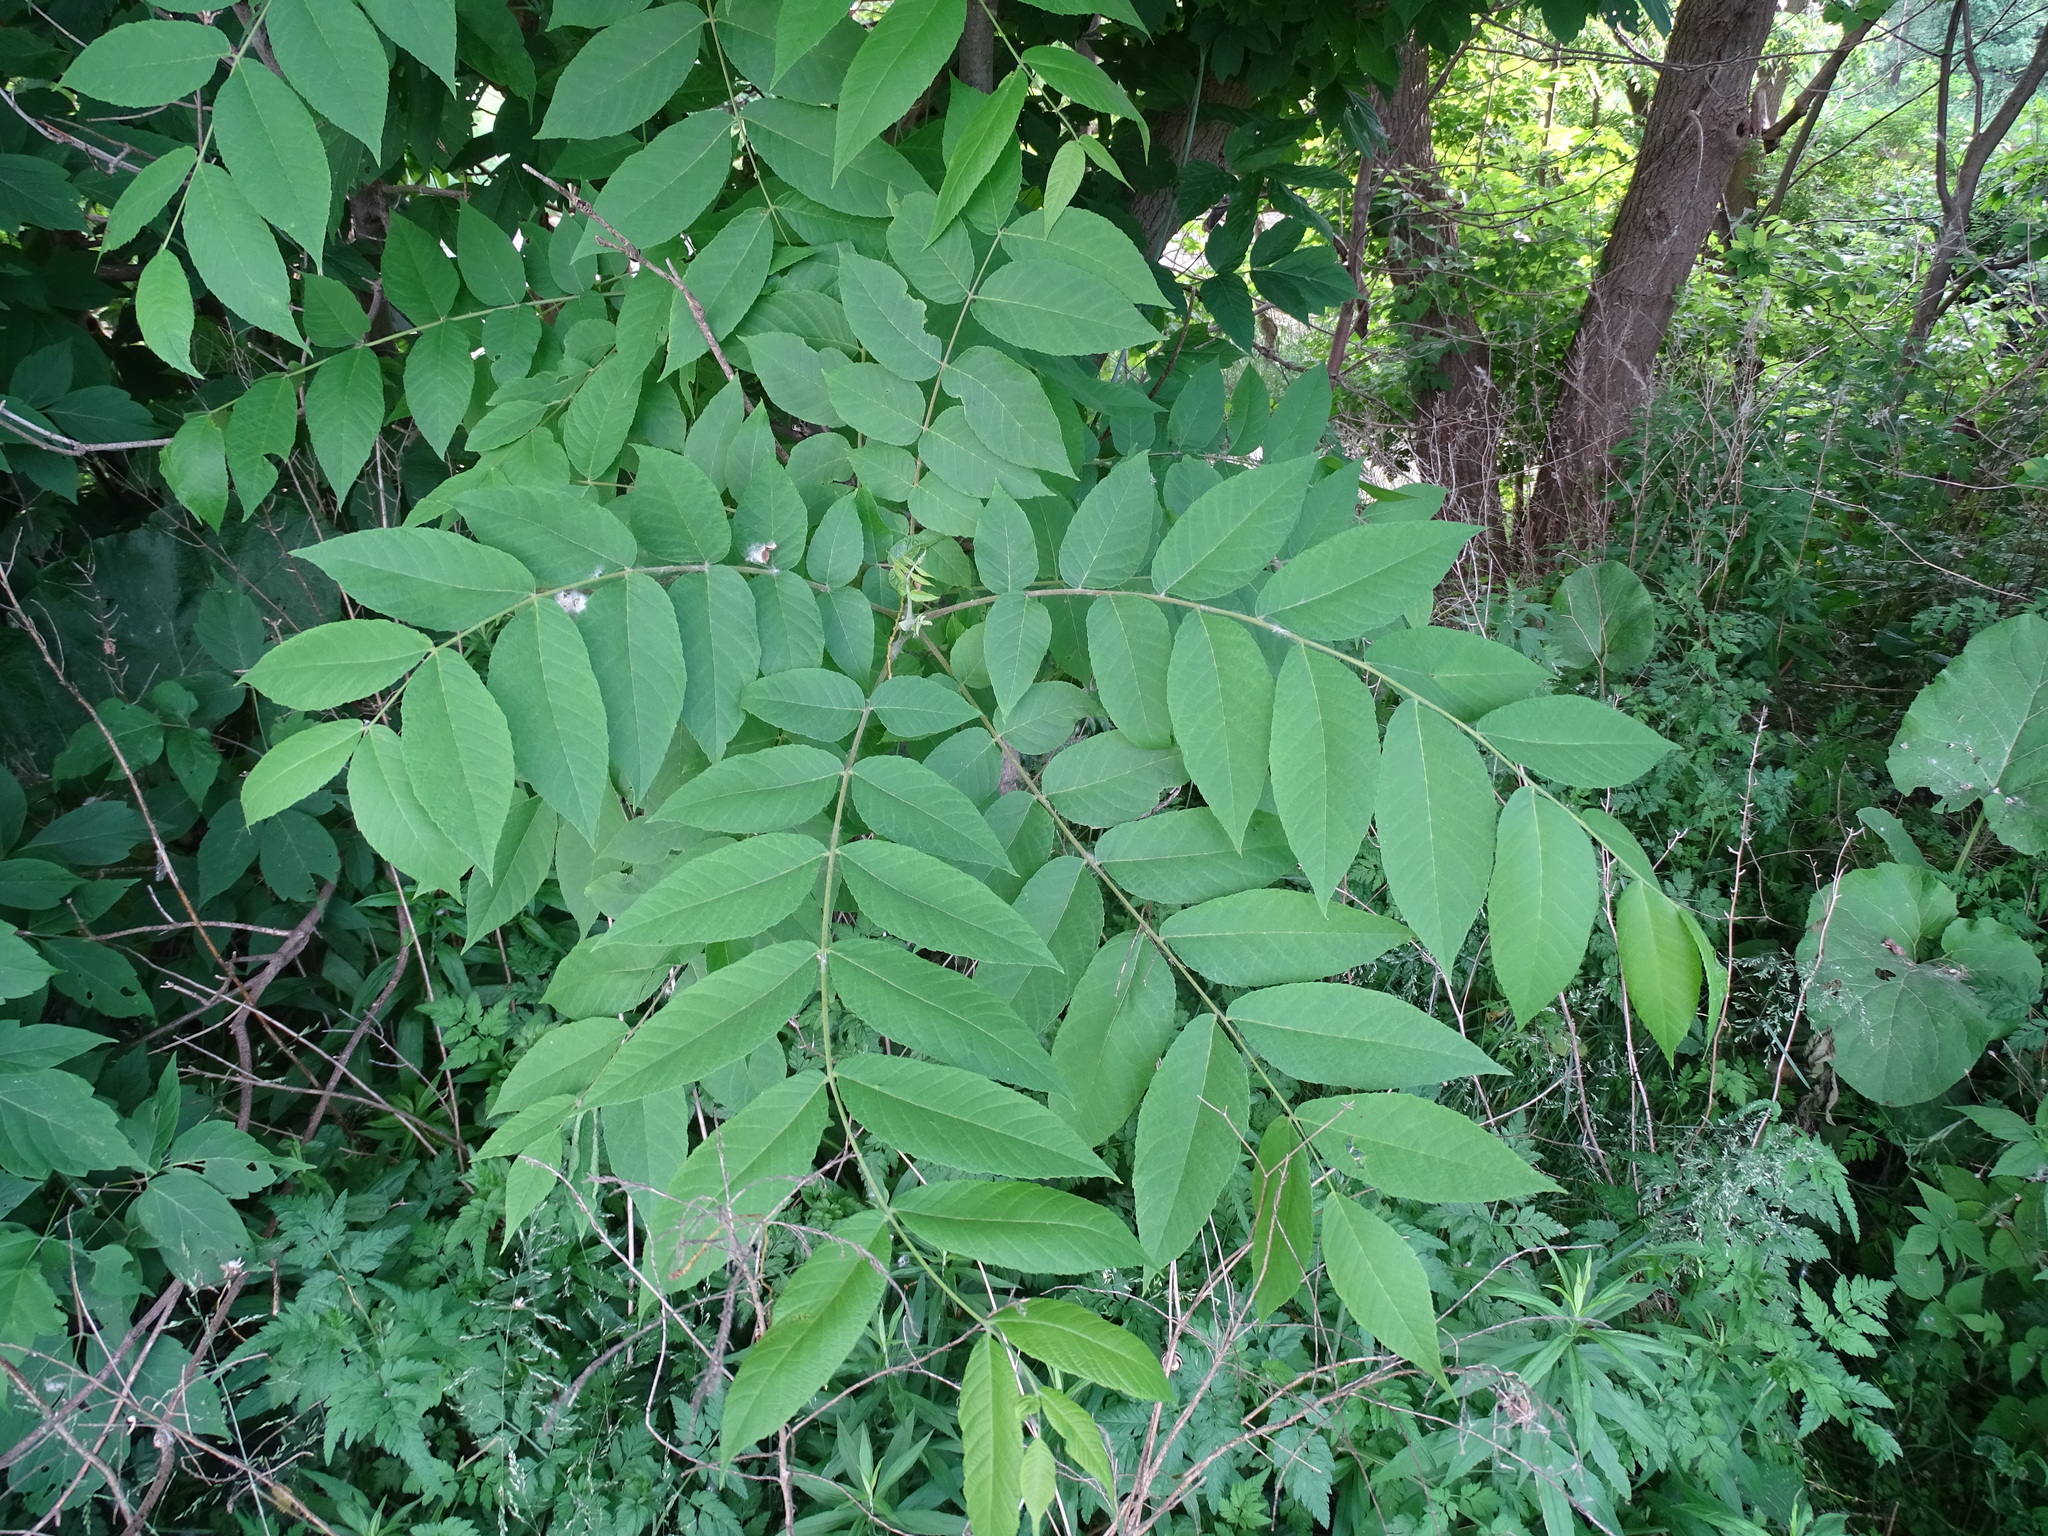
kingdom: Plantae
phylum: Tracheophyta
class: Magnoliopsida
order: Asterales
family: Asteraceae
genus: Ambrosia
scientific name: Ambrosia trifida
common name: Giant ragweed
